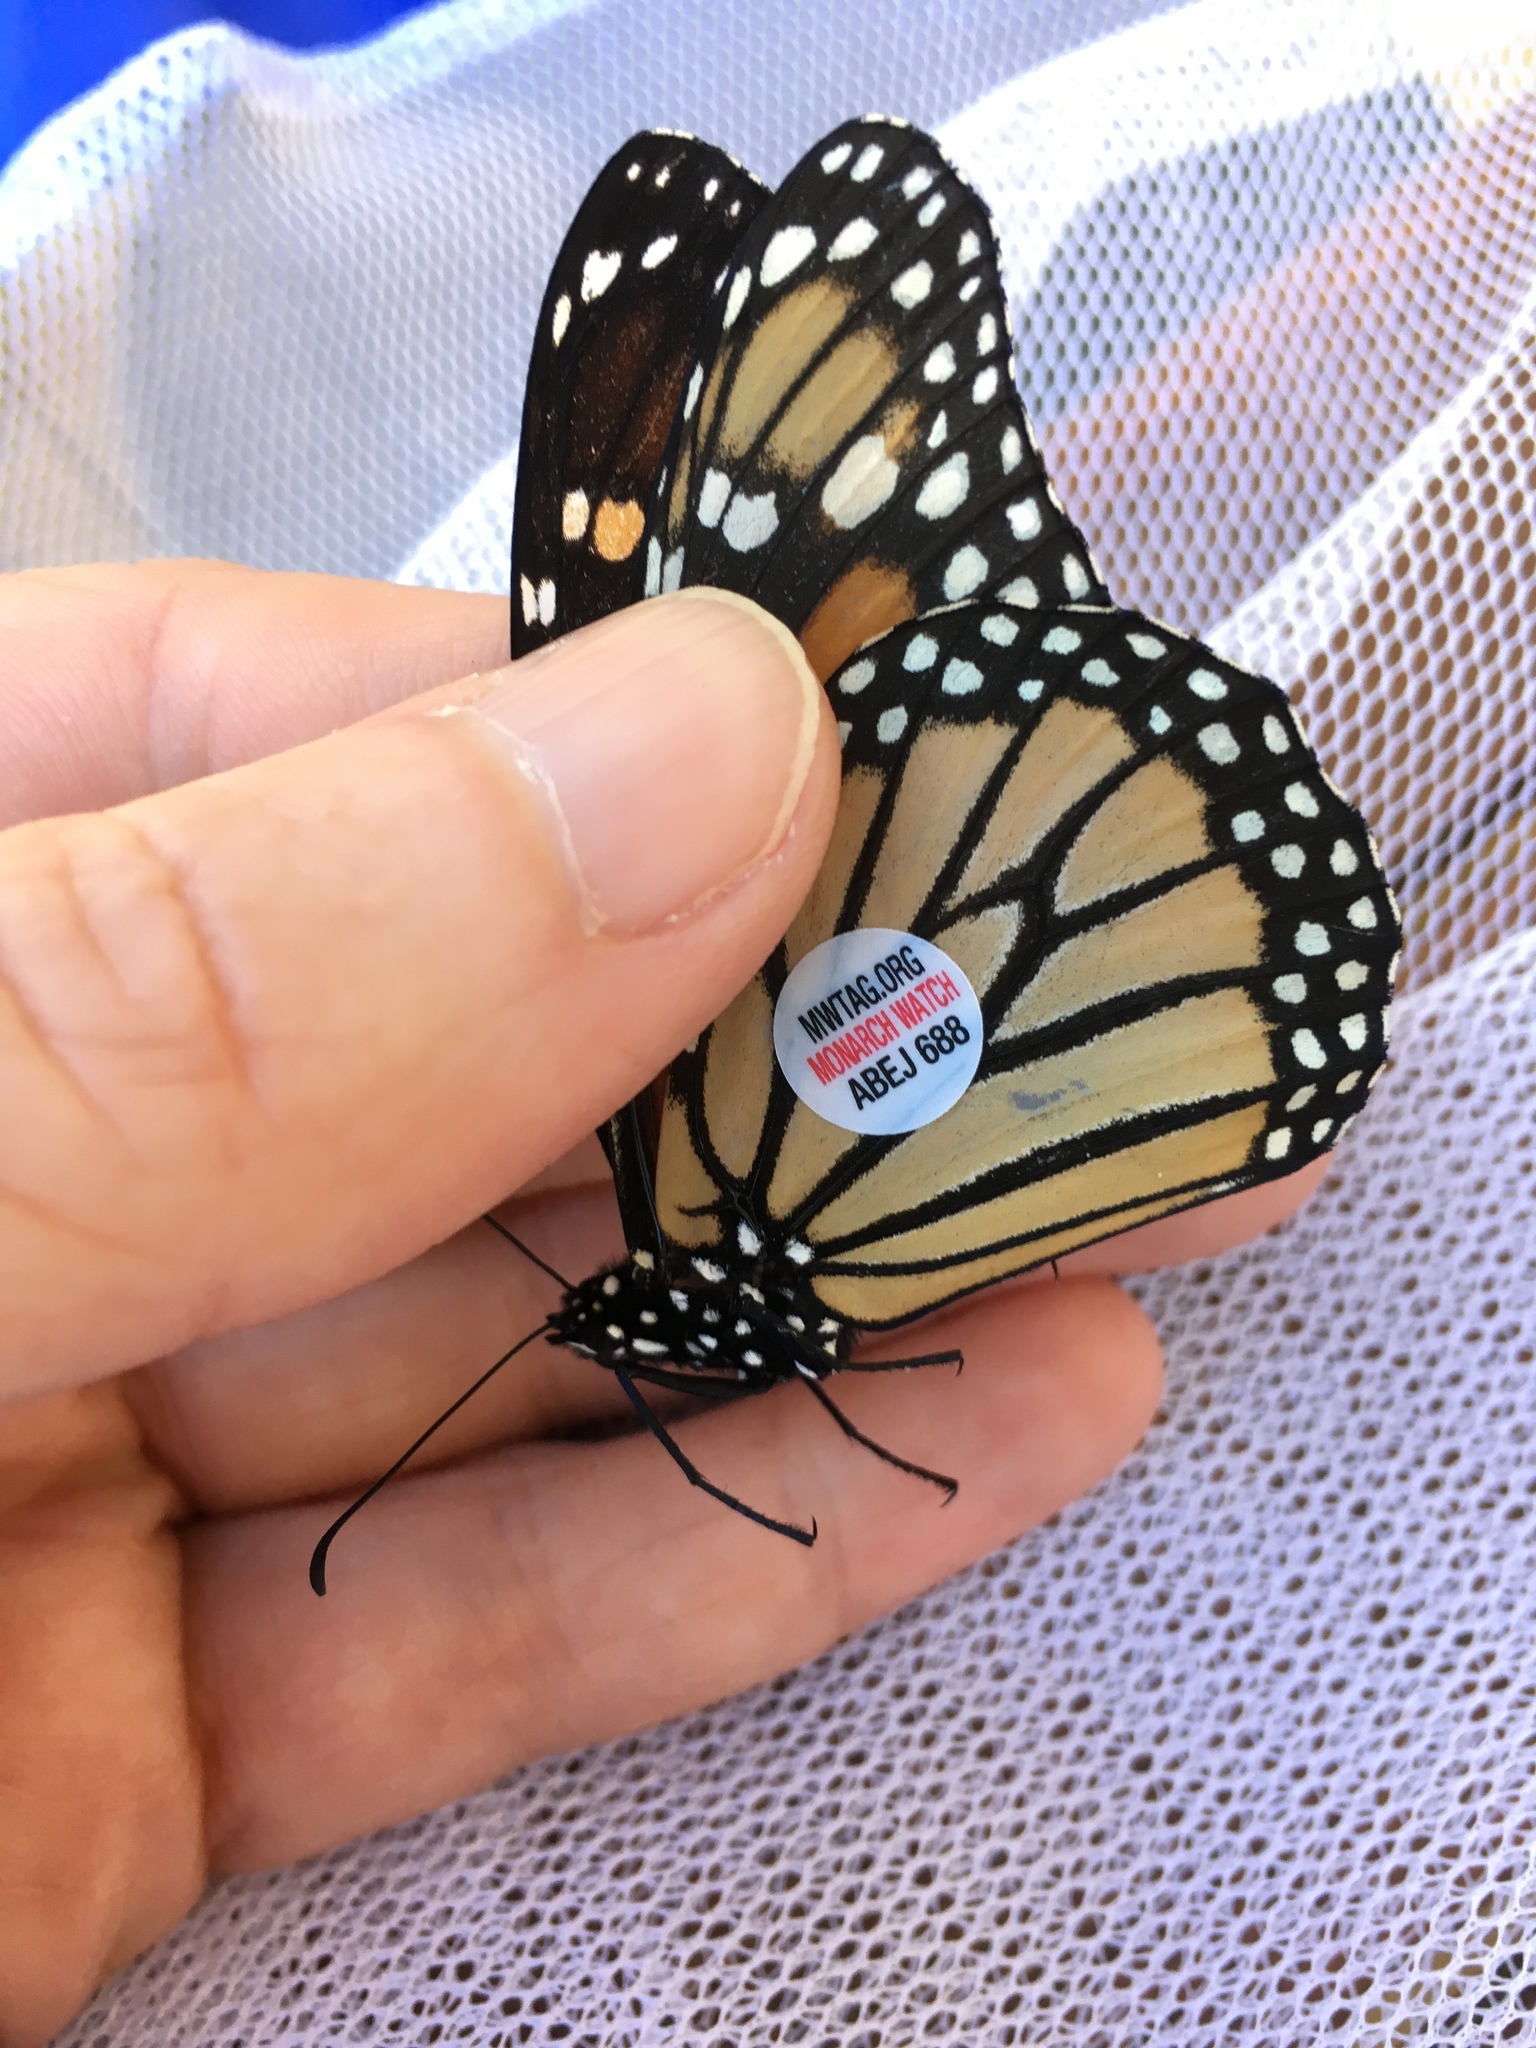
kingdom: Animalia
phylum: Arthropoda
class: Insecta
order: Lepidoptera
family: Nymphalidae
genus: Danaus
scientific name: Danaus plexippus
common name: Monarch
